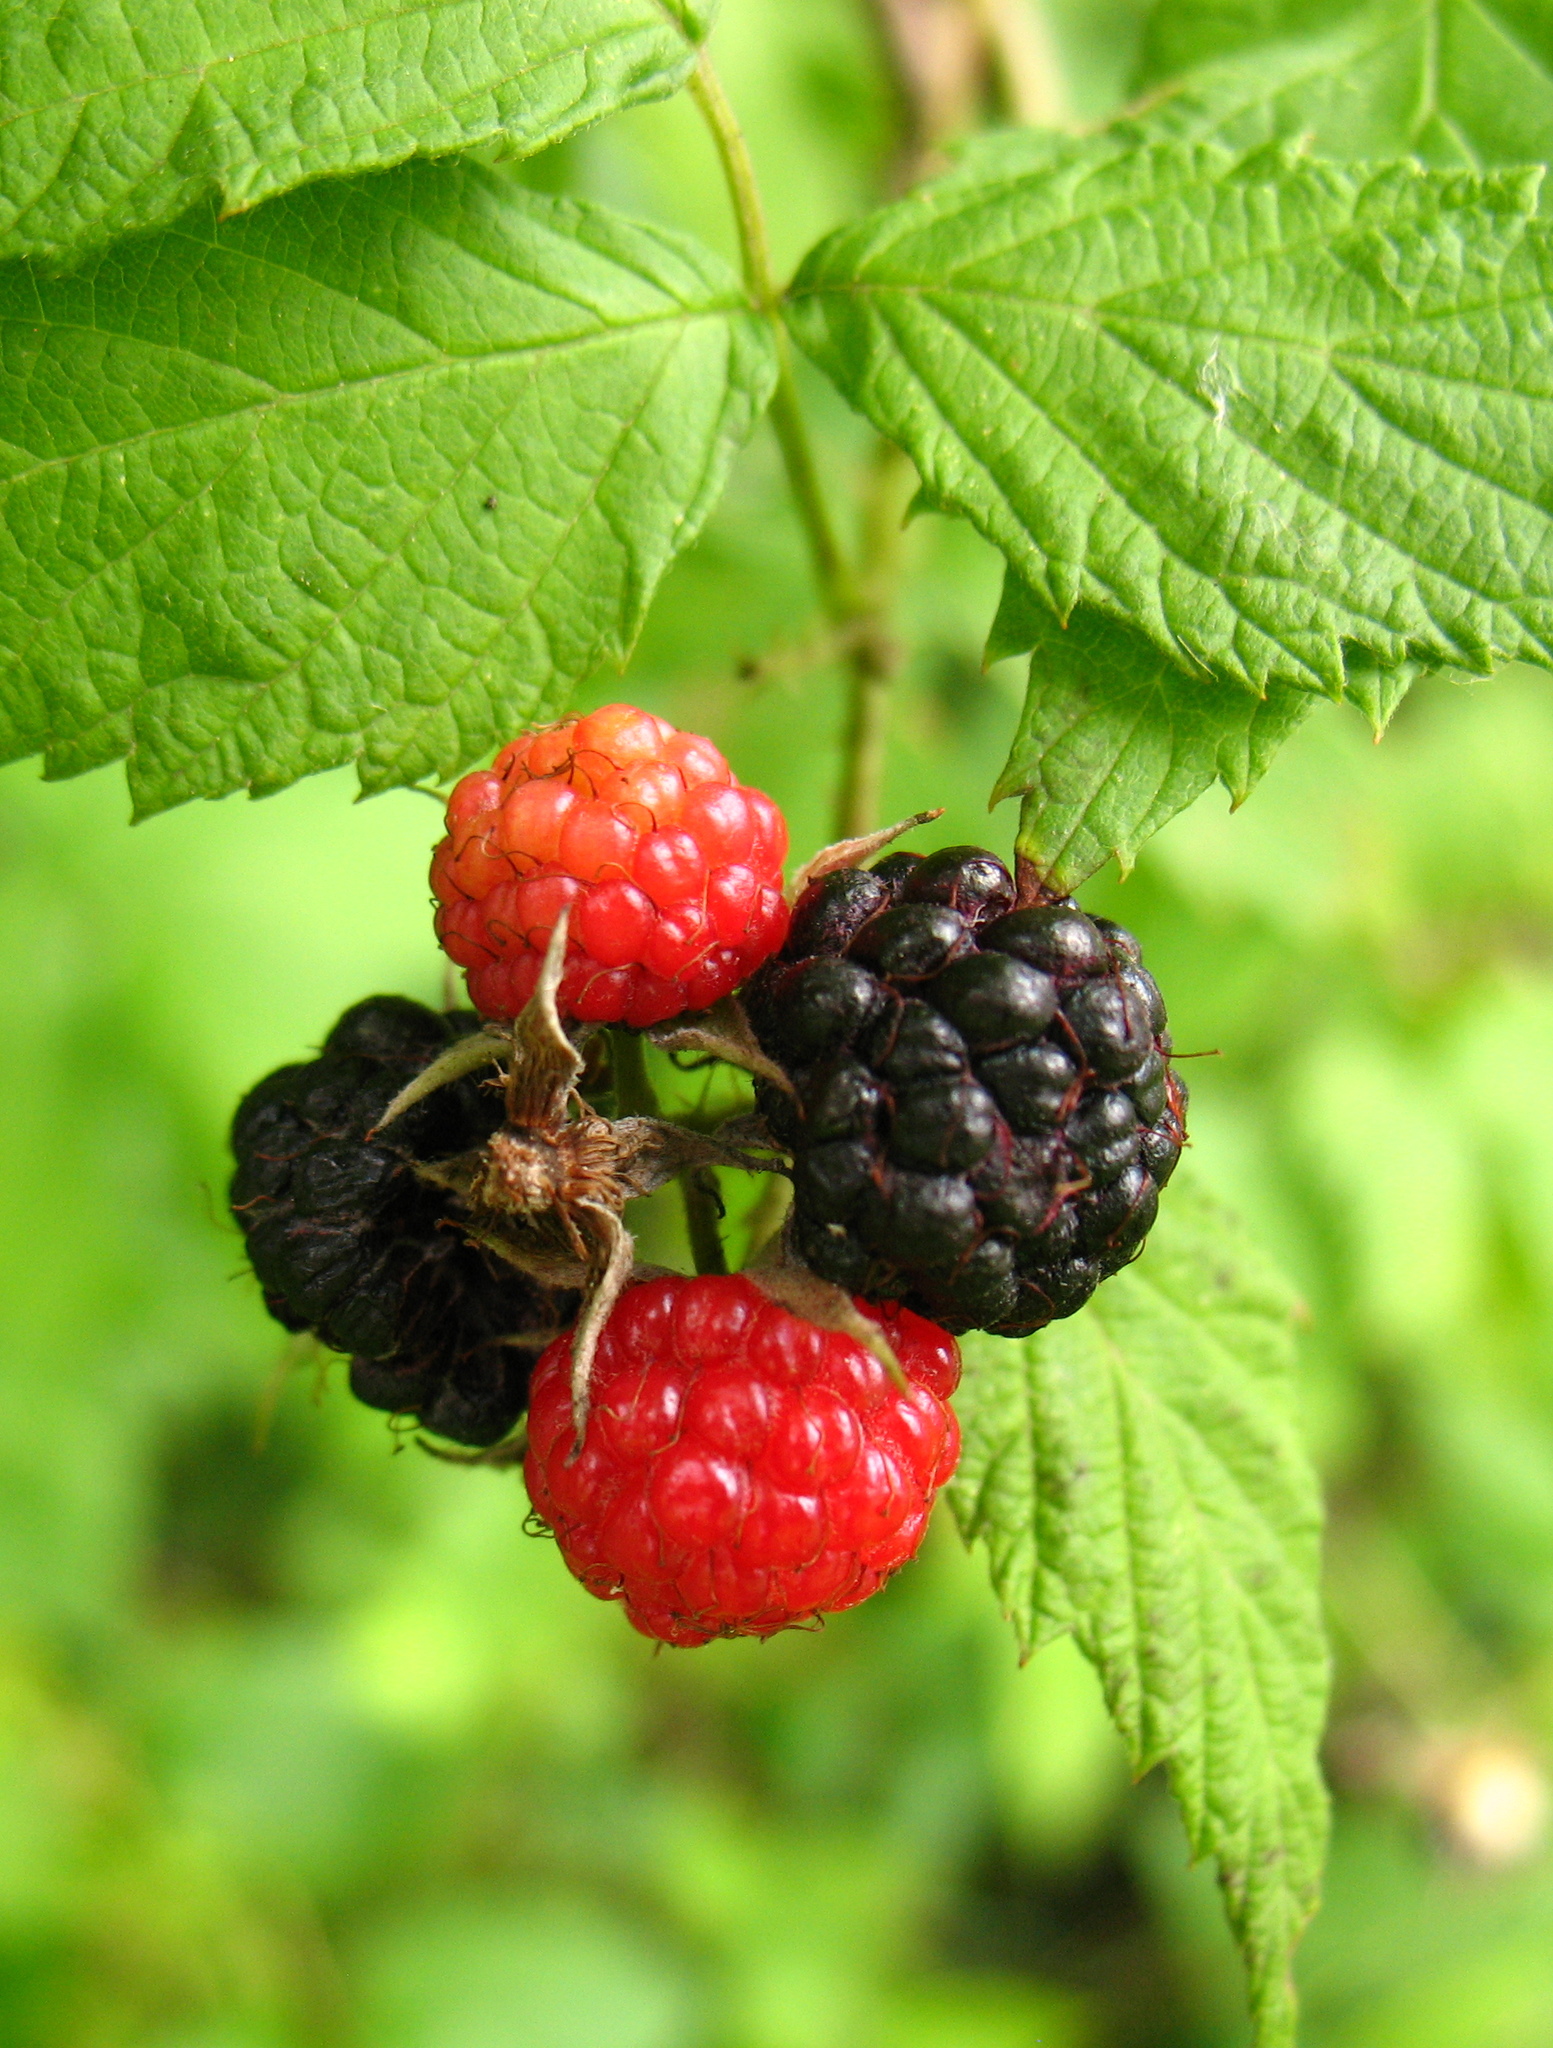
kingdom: Plantae
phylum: Tracheophyta
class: Magnoliopsida
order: Rosales
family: Rosaceae
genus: Rubus
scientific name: Rubus occidentalis
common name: Black raspberry
